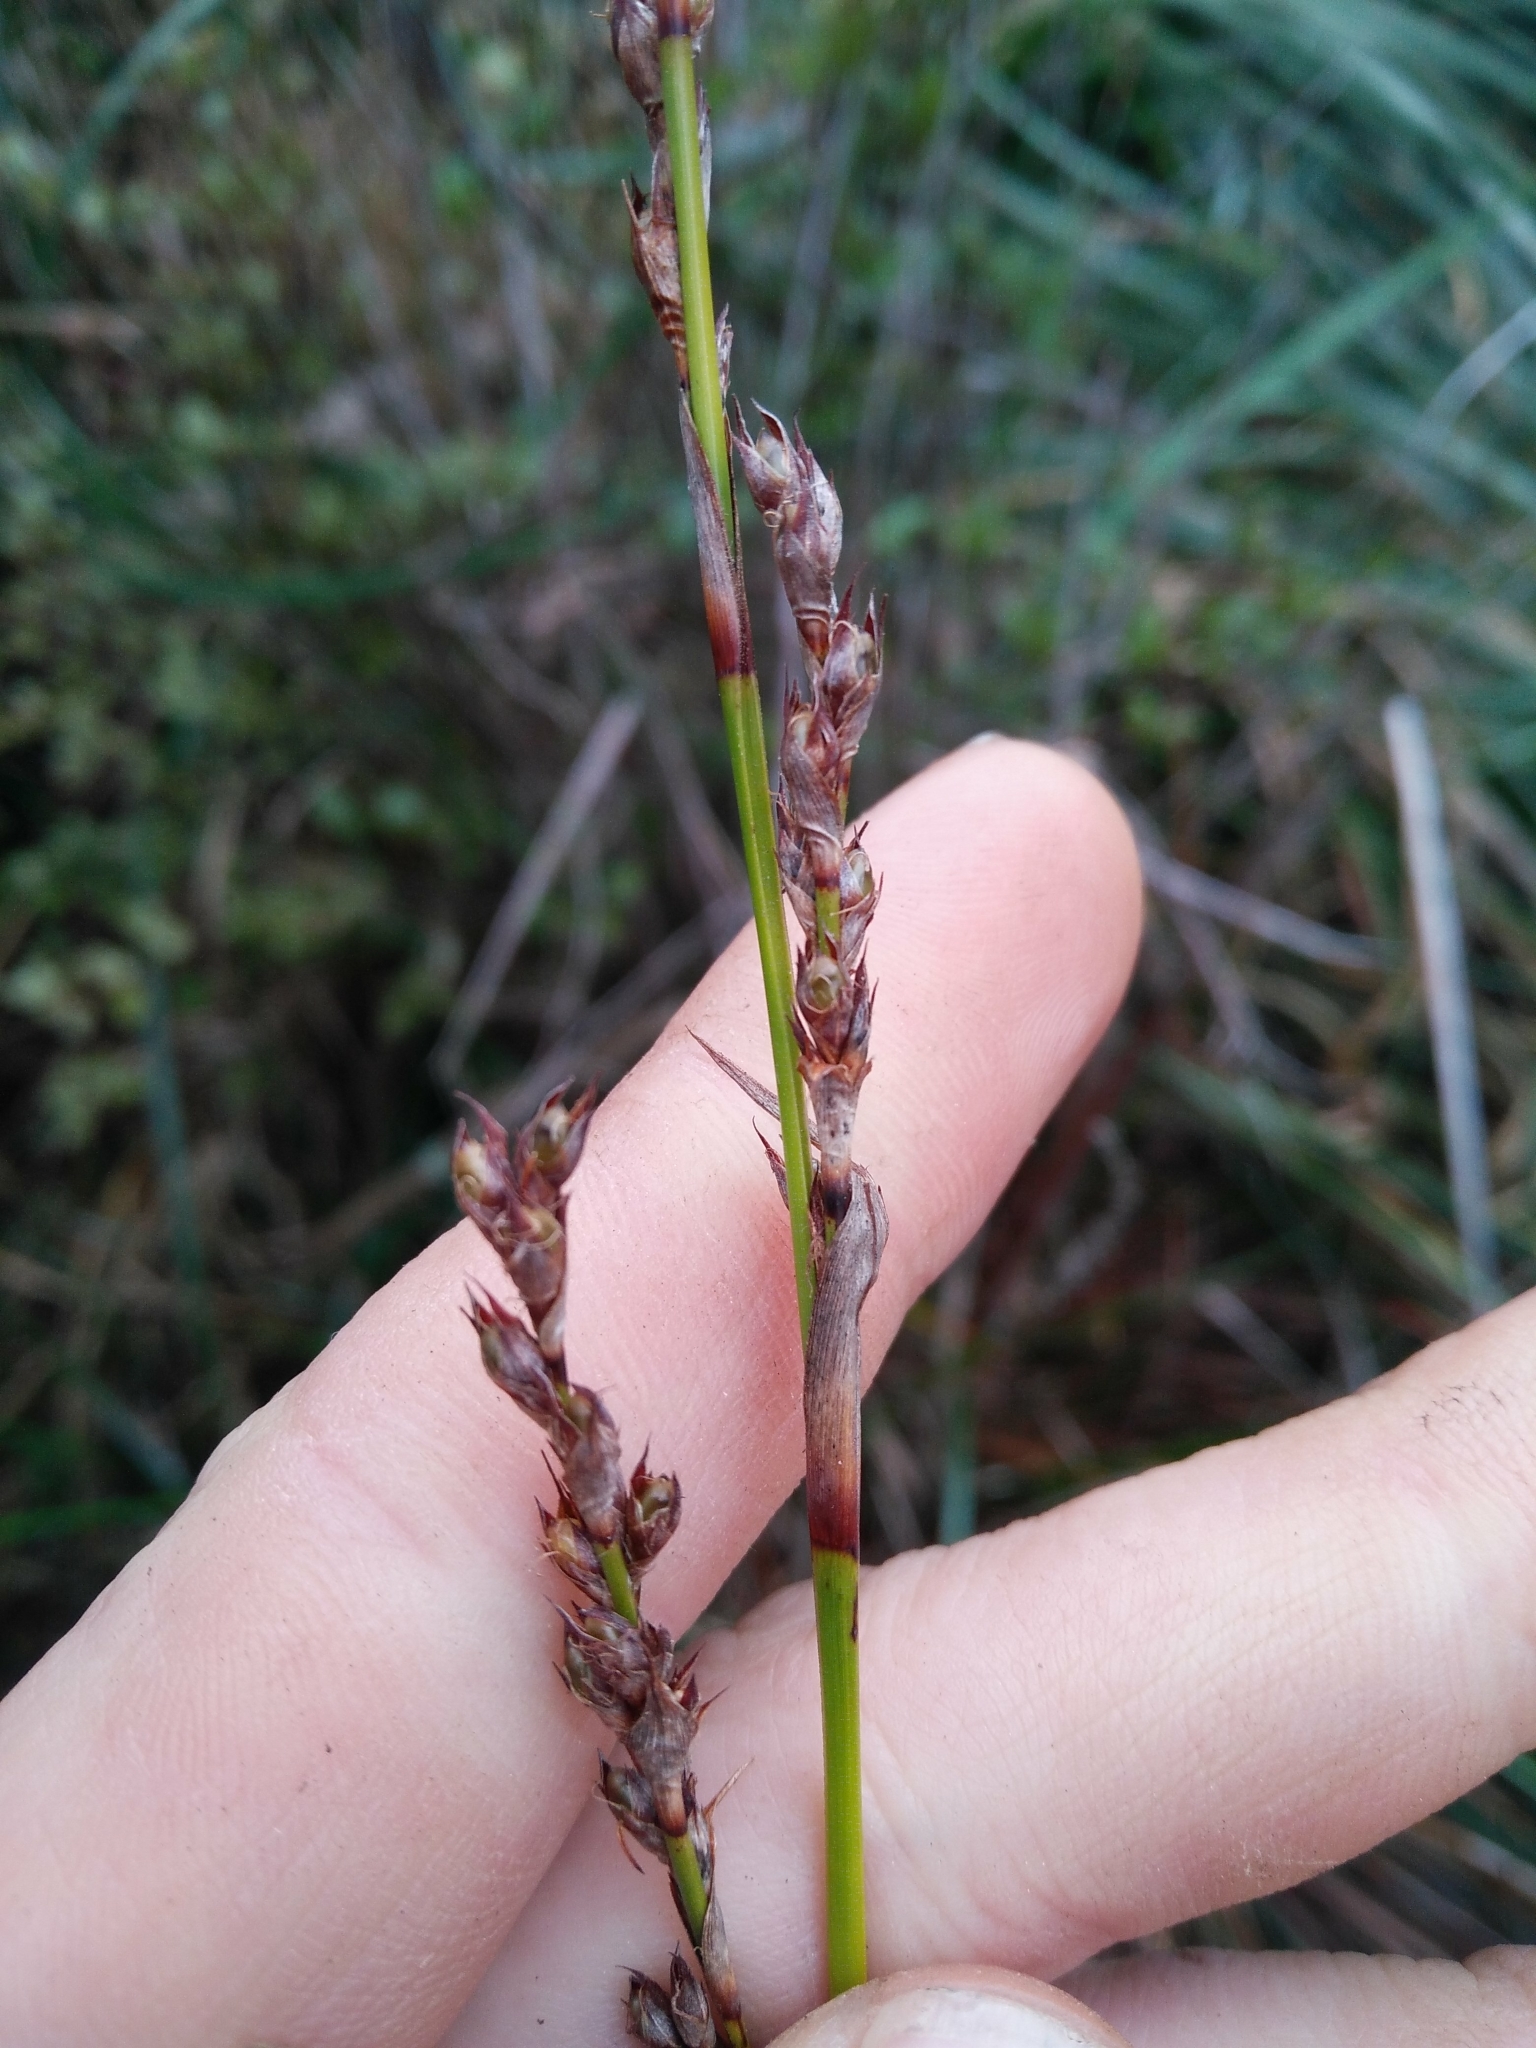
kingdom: Plantae
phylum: Tracheophyta
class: Liliopsida
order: Poales
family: Cyperaceae
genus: Lepidosperma
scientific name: Lepidosperma laterale
